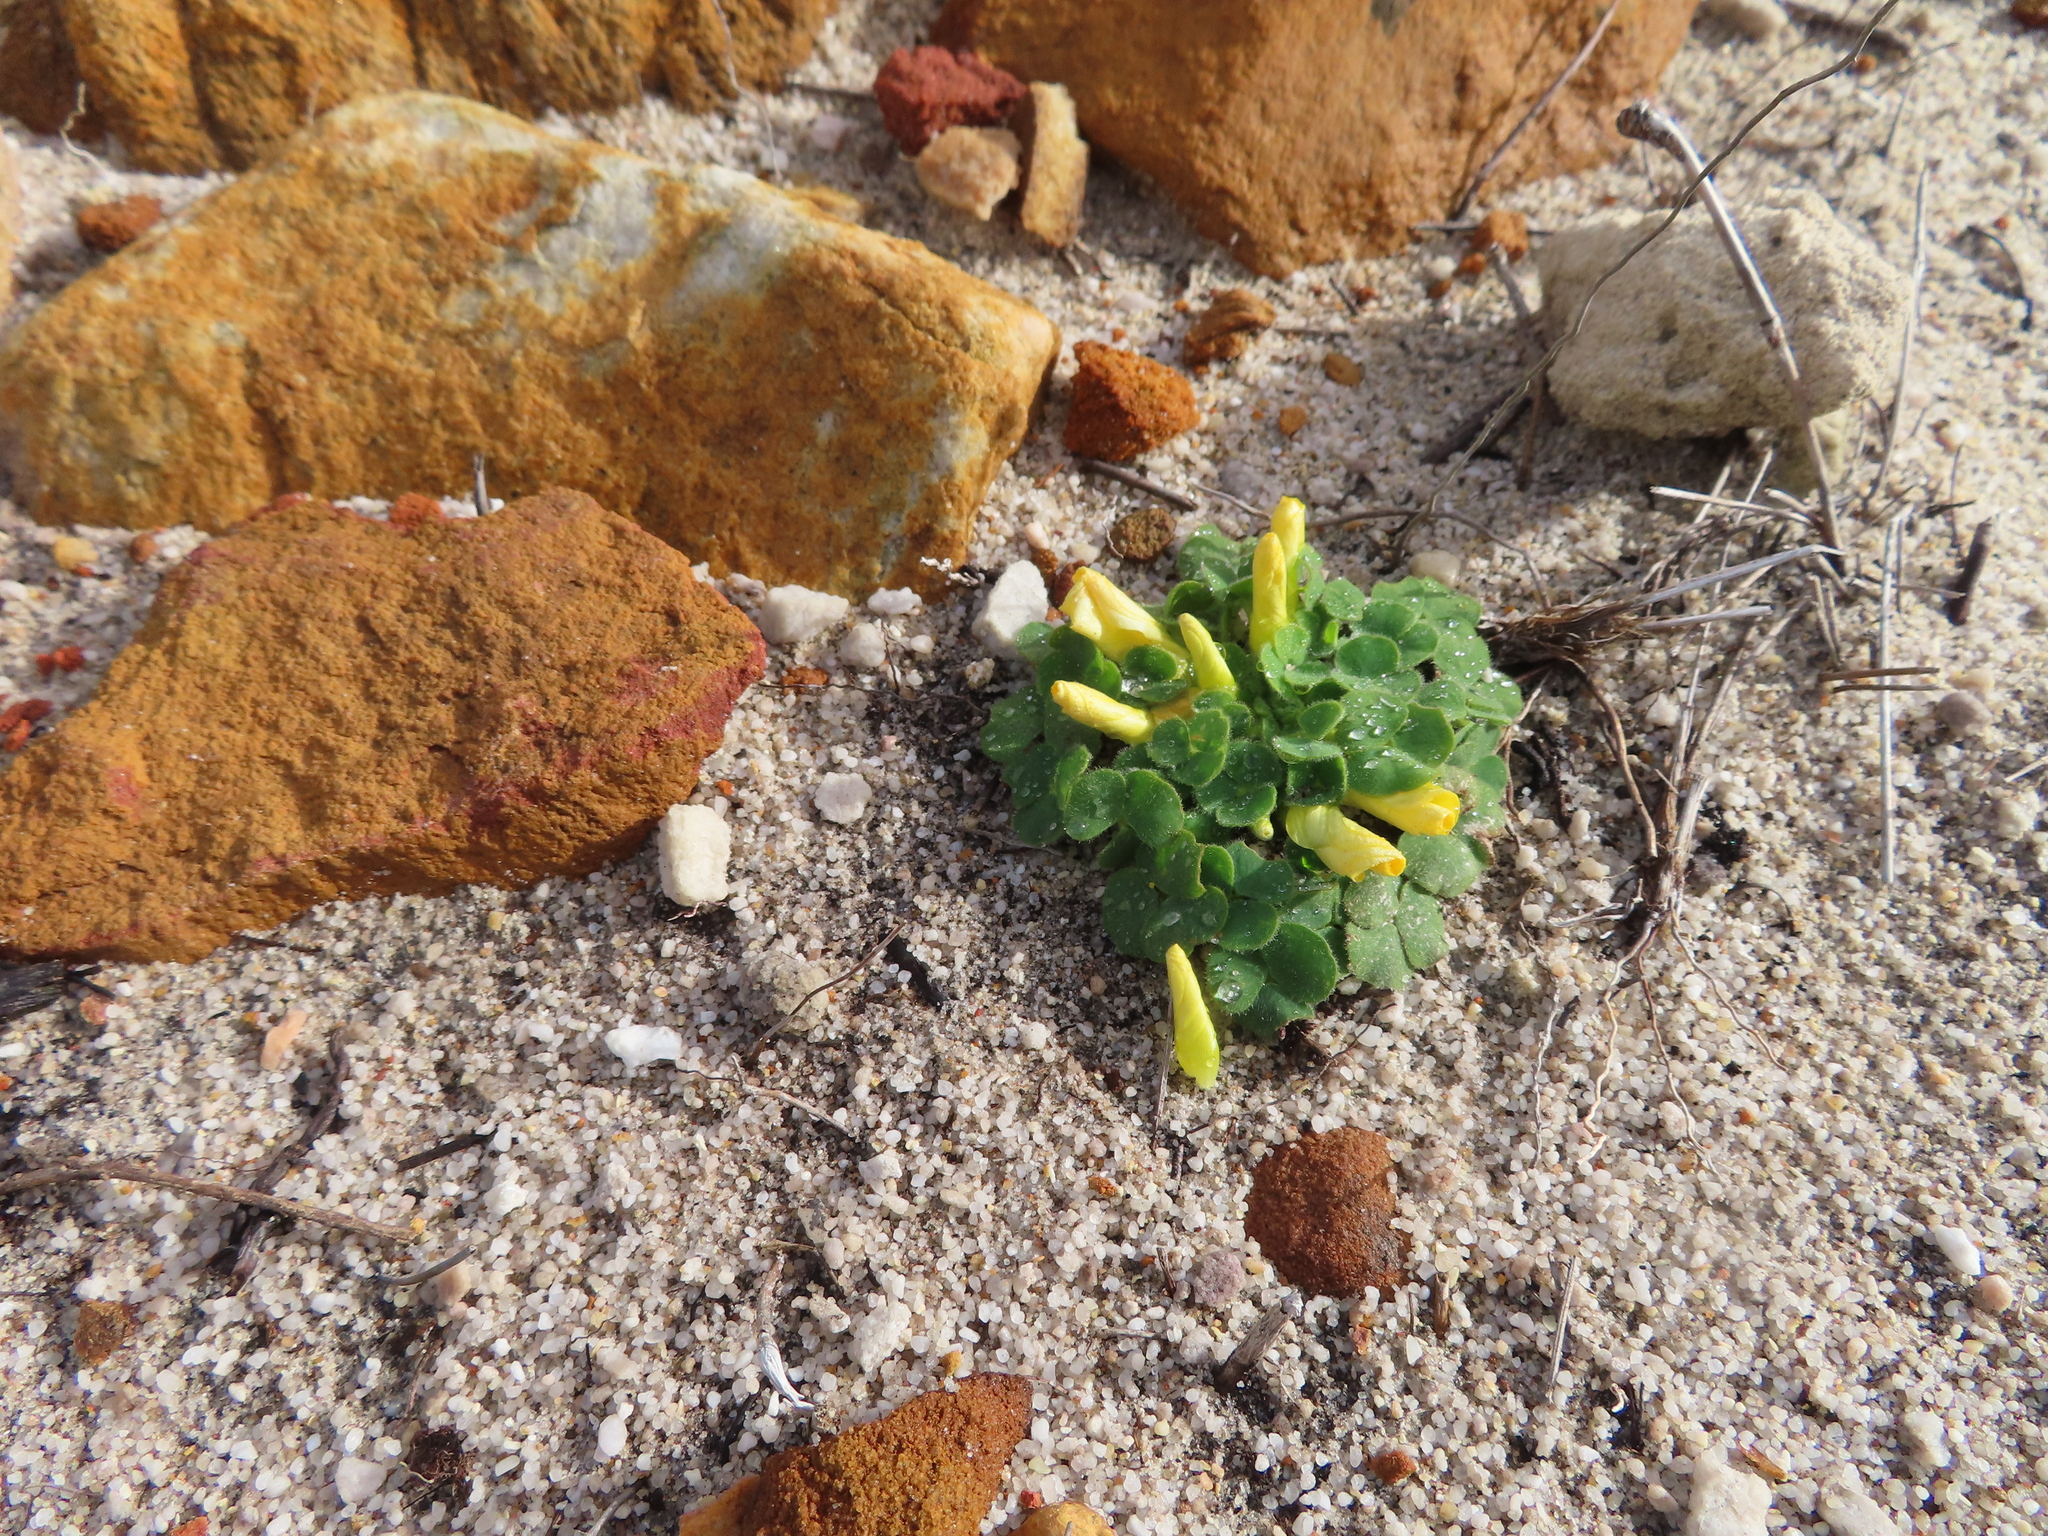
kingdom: Plantae
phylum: Tracheophyta
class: Magnoliopsida
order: Oxalidales
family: Oxalidaceae
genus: Oxalis
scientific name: Oxalis luteola
